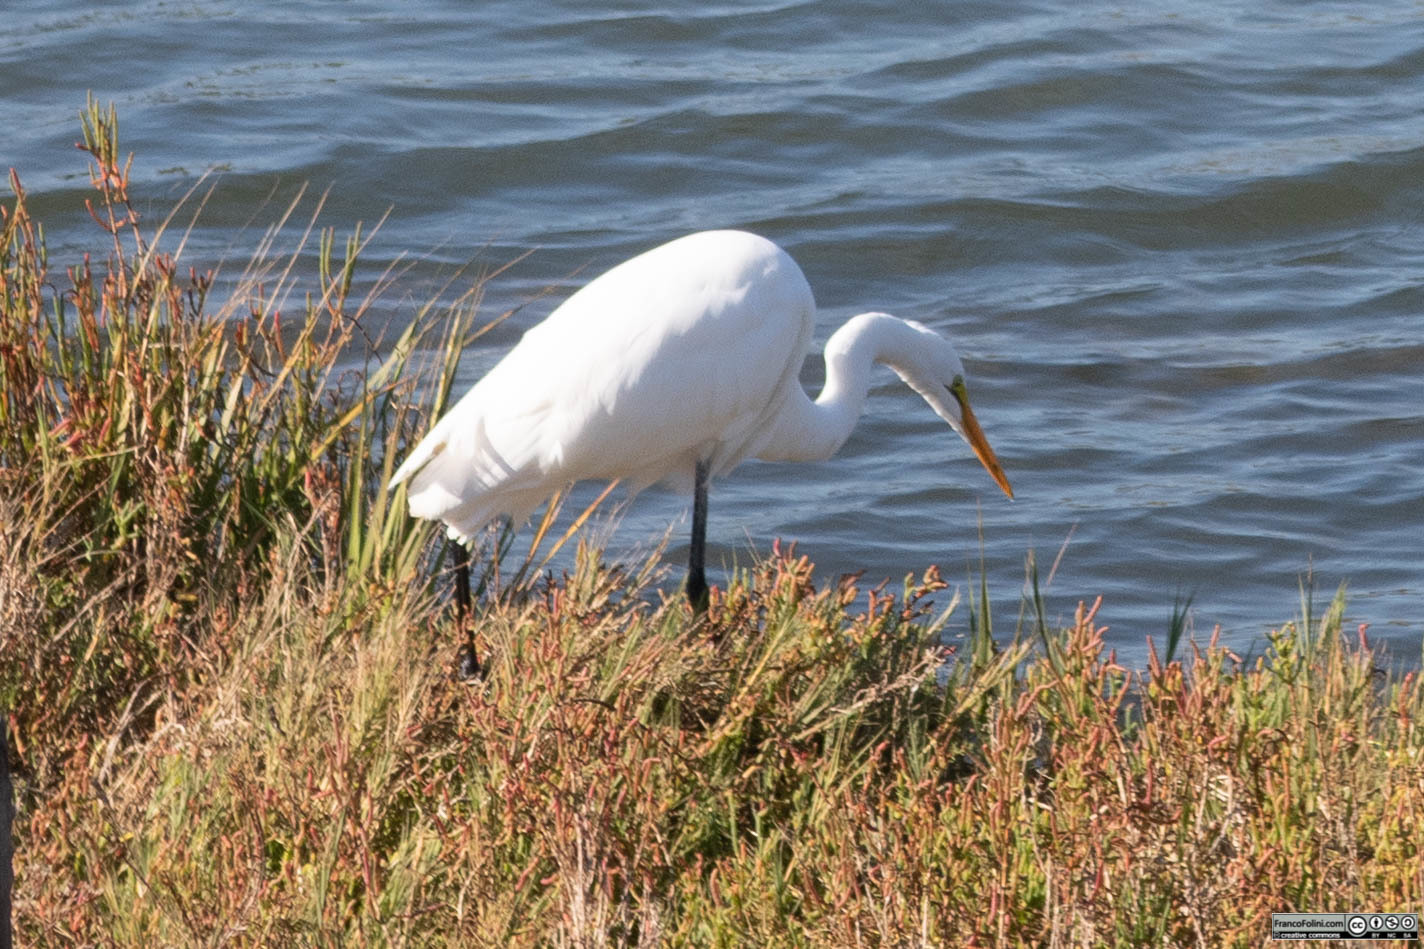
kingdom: Animalia
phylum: Chordata
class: Aves
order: Pelecaniformes
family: Ardeidae
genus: Ardea
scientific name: Ardea alba
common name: Great egret
